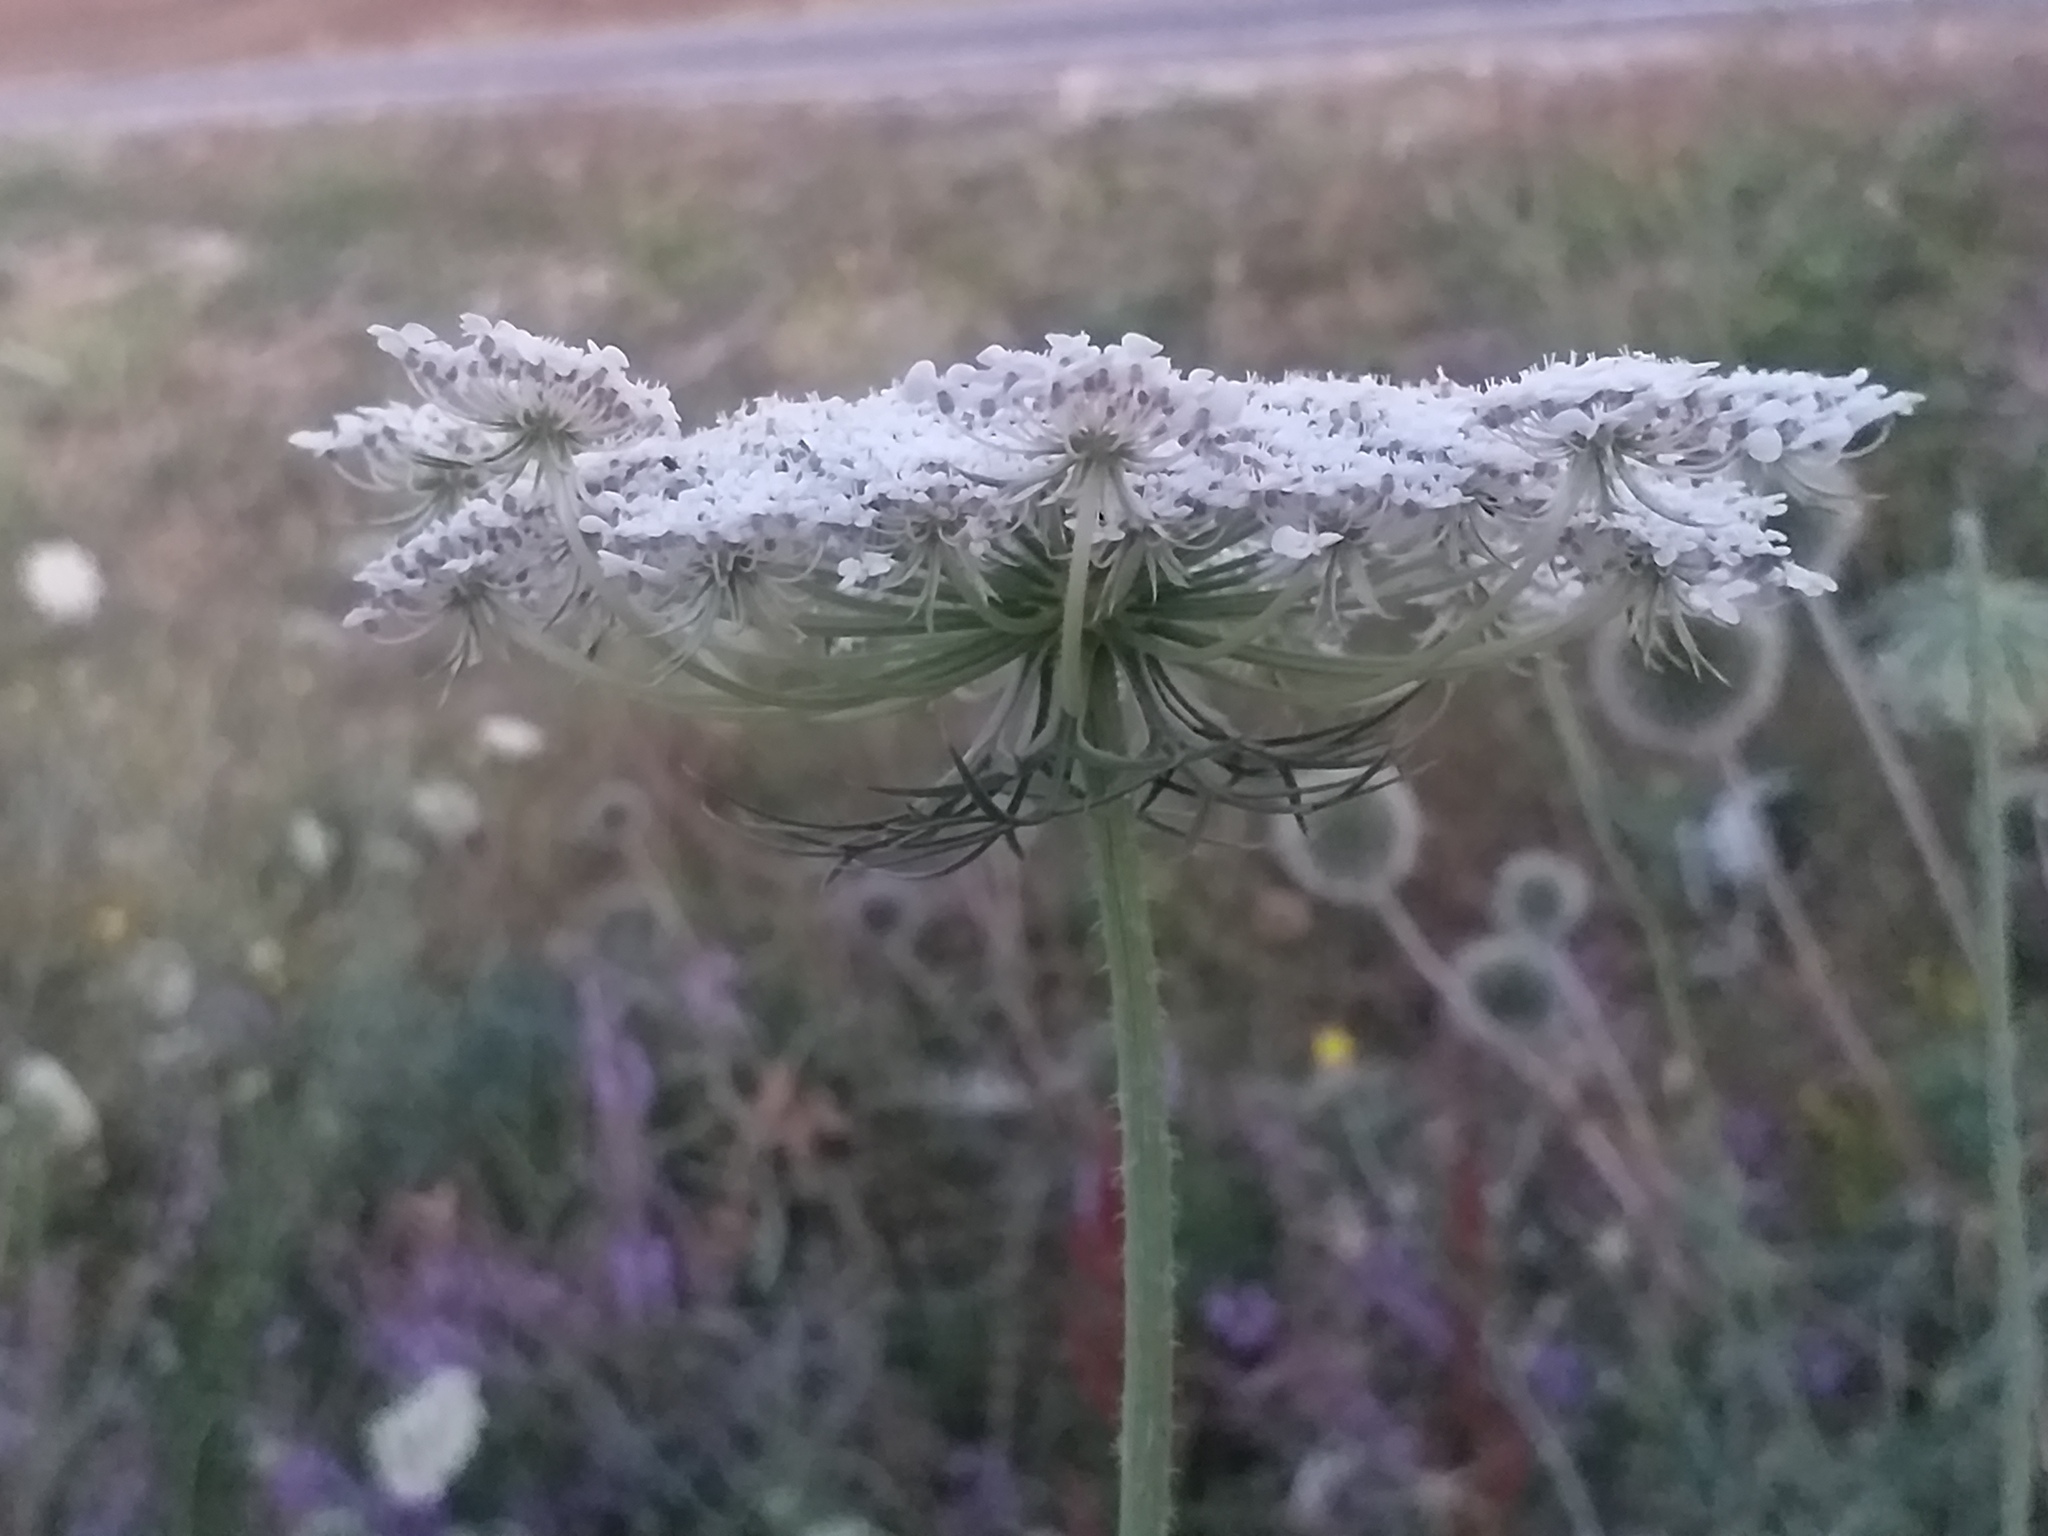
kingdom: Plantae
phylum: Tracheophyta
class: Magnoliopsida
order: Apiales
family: Apiaceae
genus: Daucus
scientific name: Daucus carota
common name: Wild carrot
